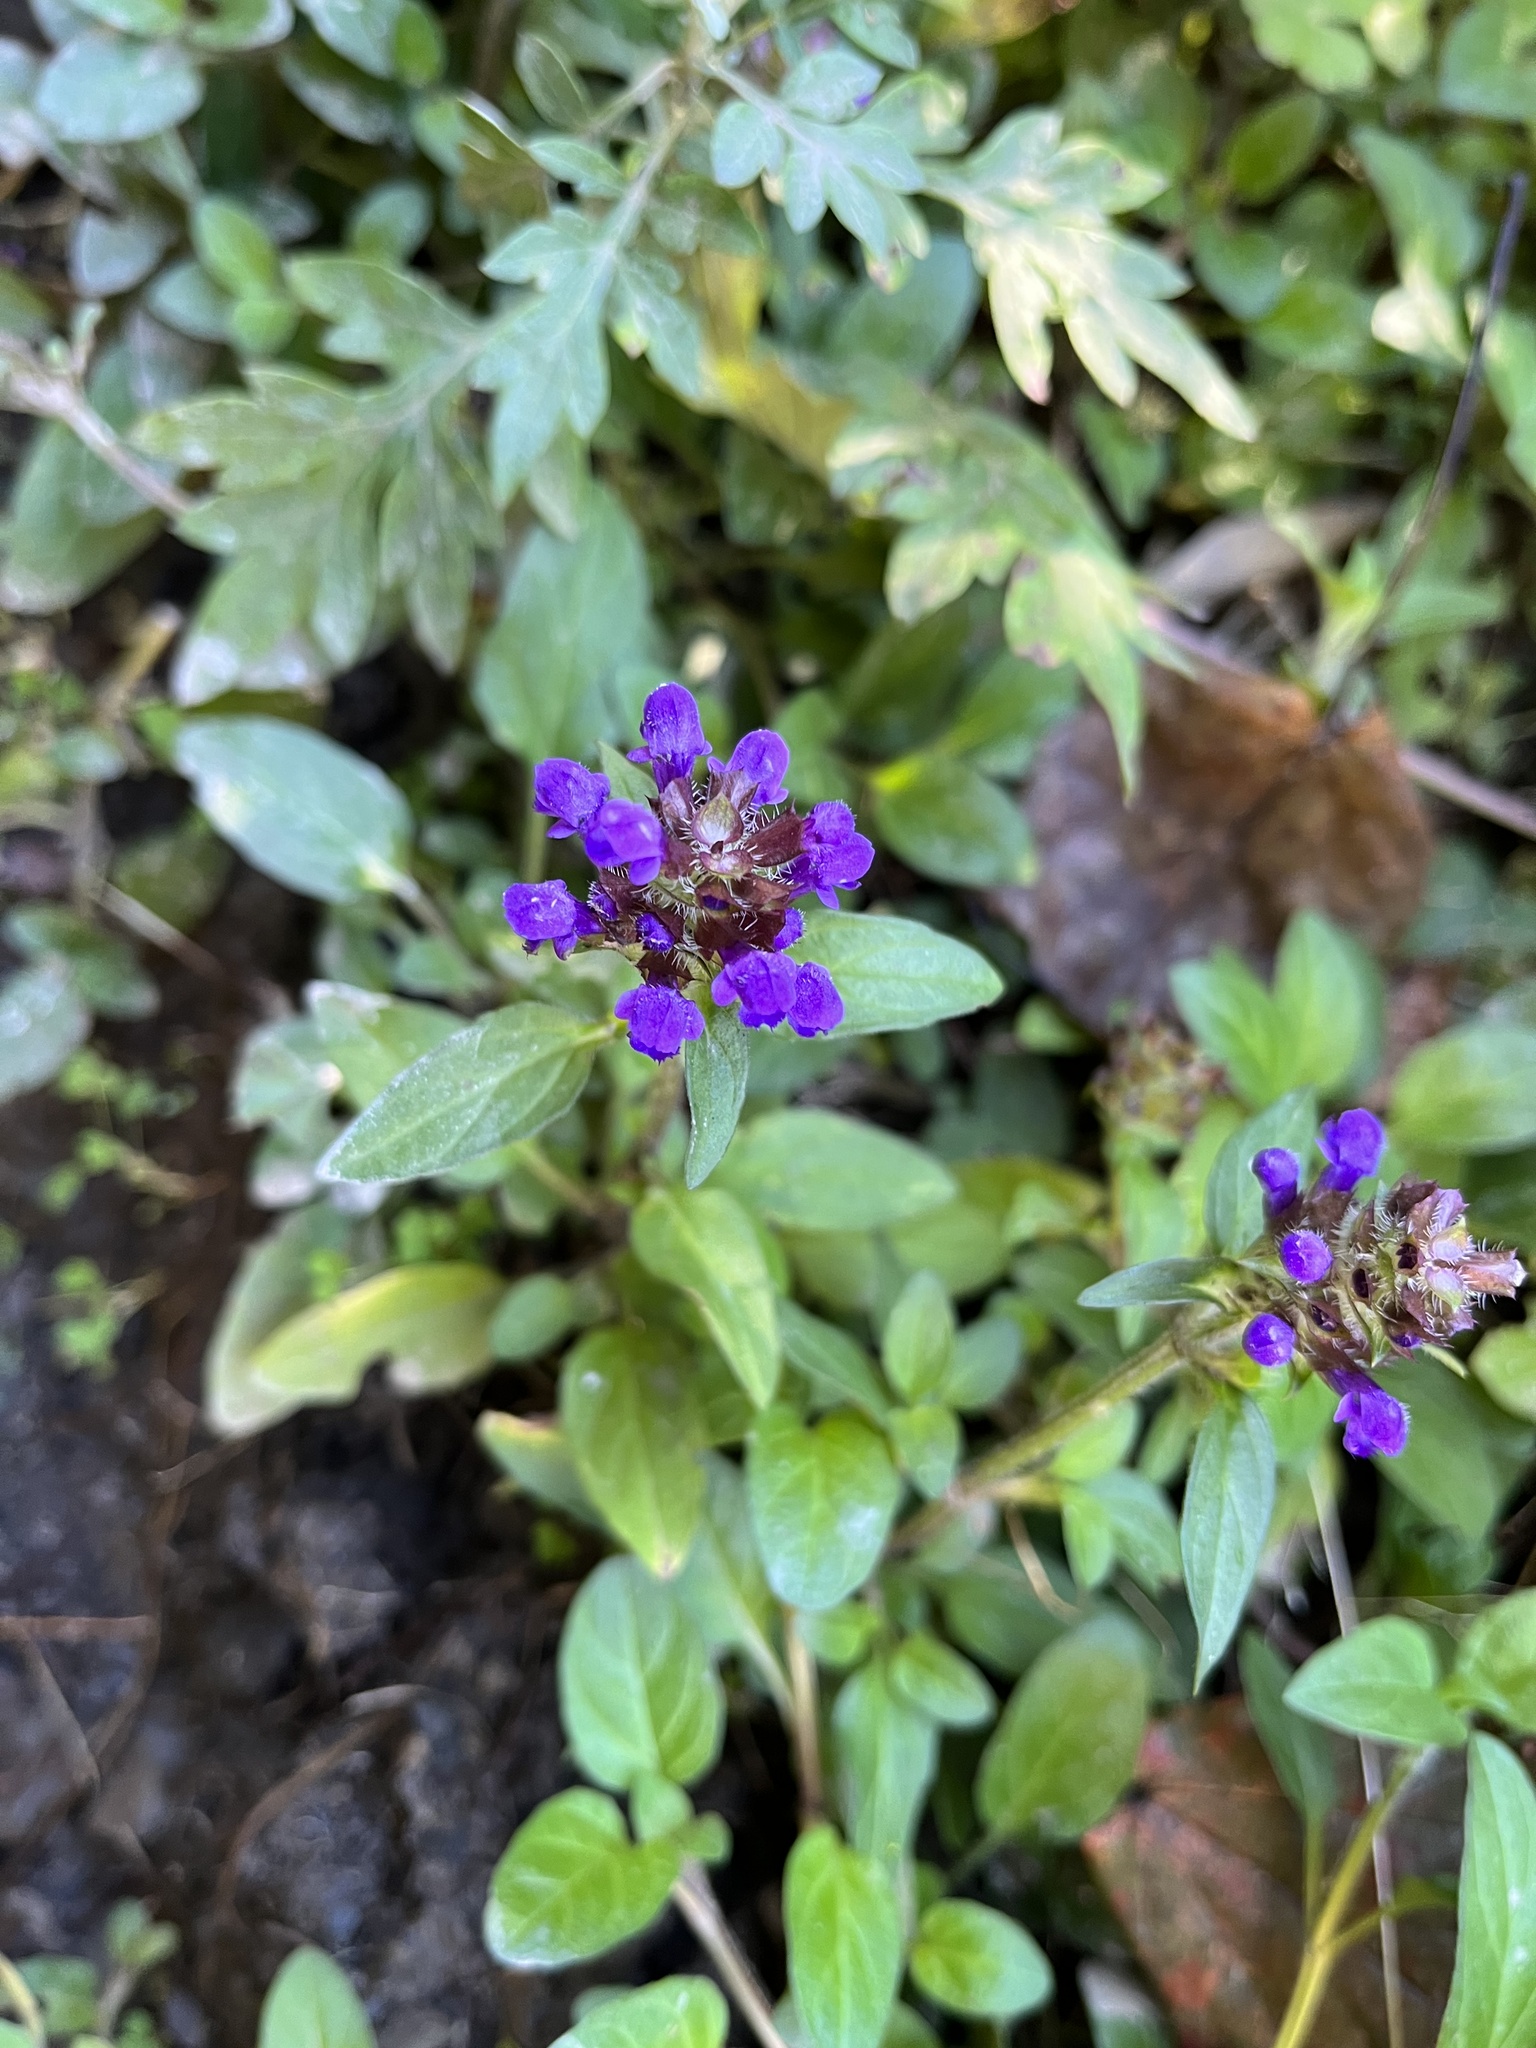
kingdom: Plantae
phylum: Tracheophyta
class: Magnoliopsida
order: Lamiales
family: Lamiaceae
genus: Prunella
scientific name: Prunella vulgaris
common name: Heal-all
